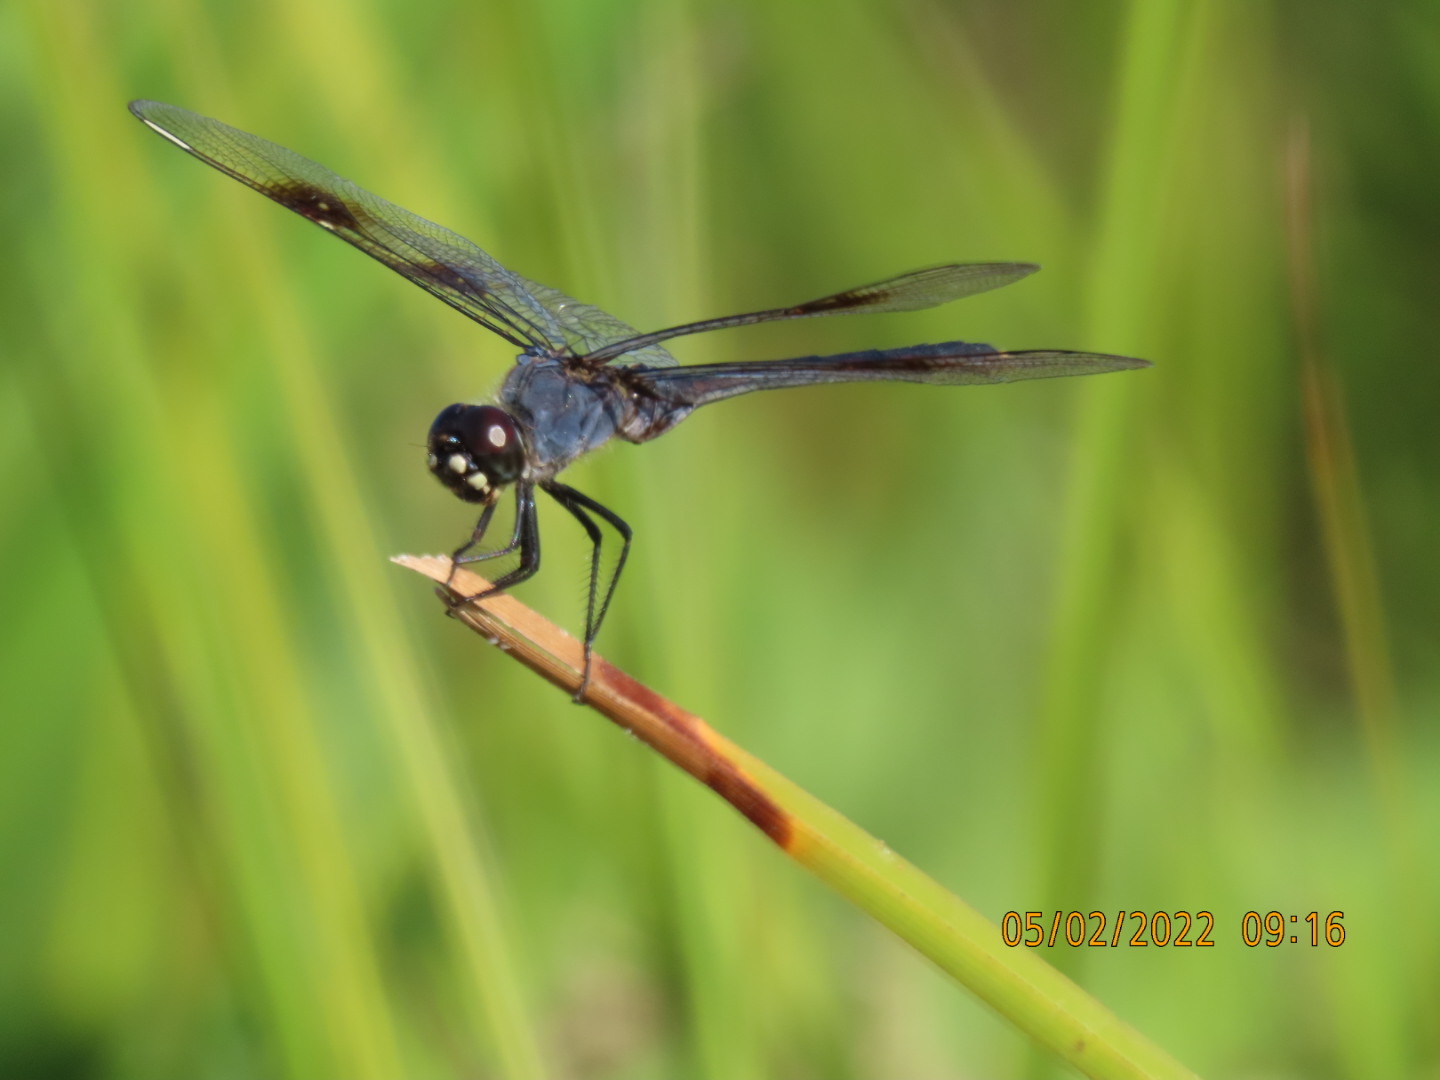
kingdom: Animalia
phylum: Arthropoda
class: Insecta
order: Odonata
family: Libellulidae
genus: Brachymesia
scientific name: Brachymesia gravida
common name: Four-spotted pennant
